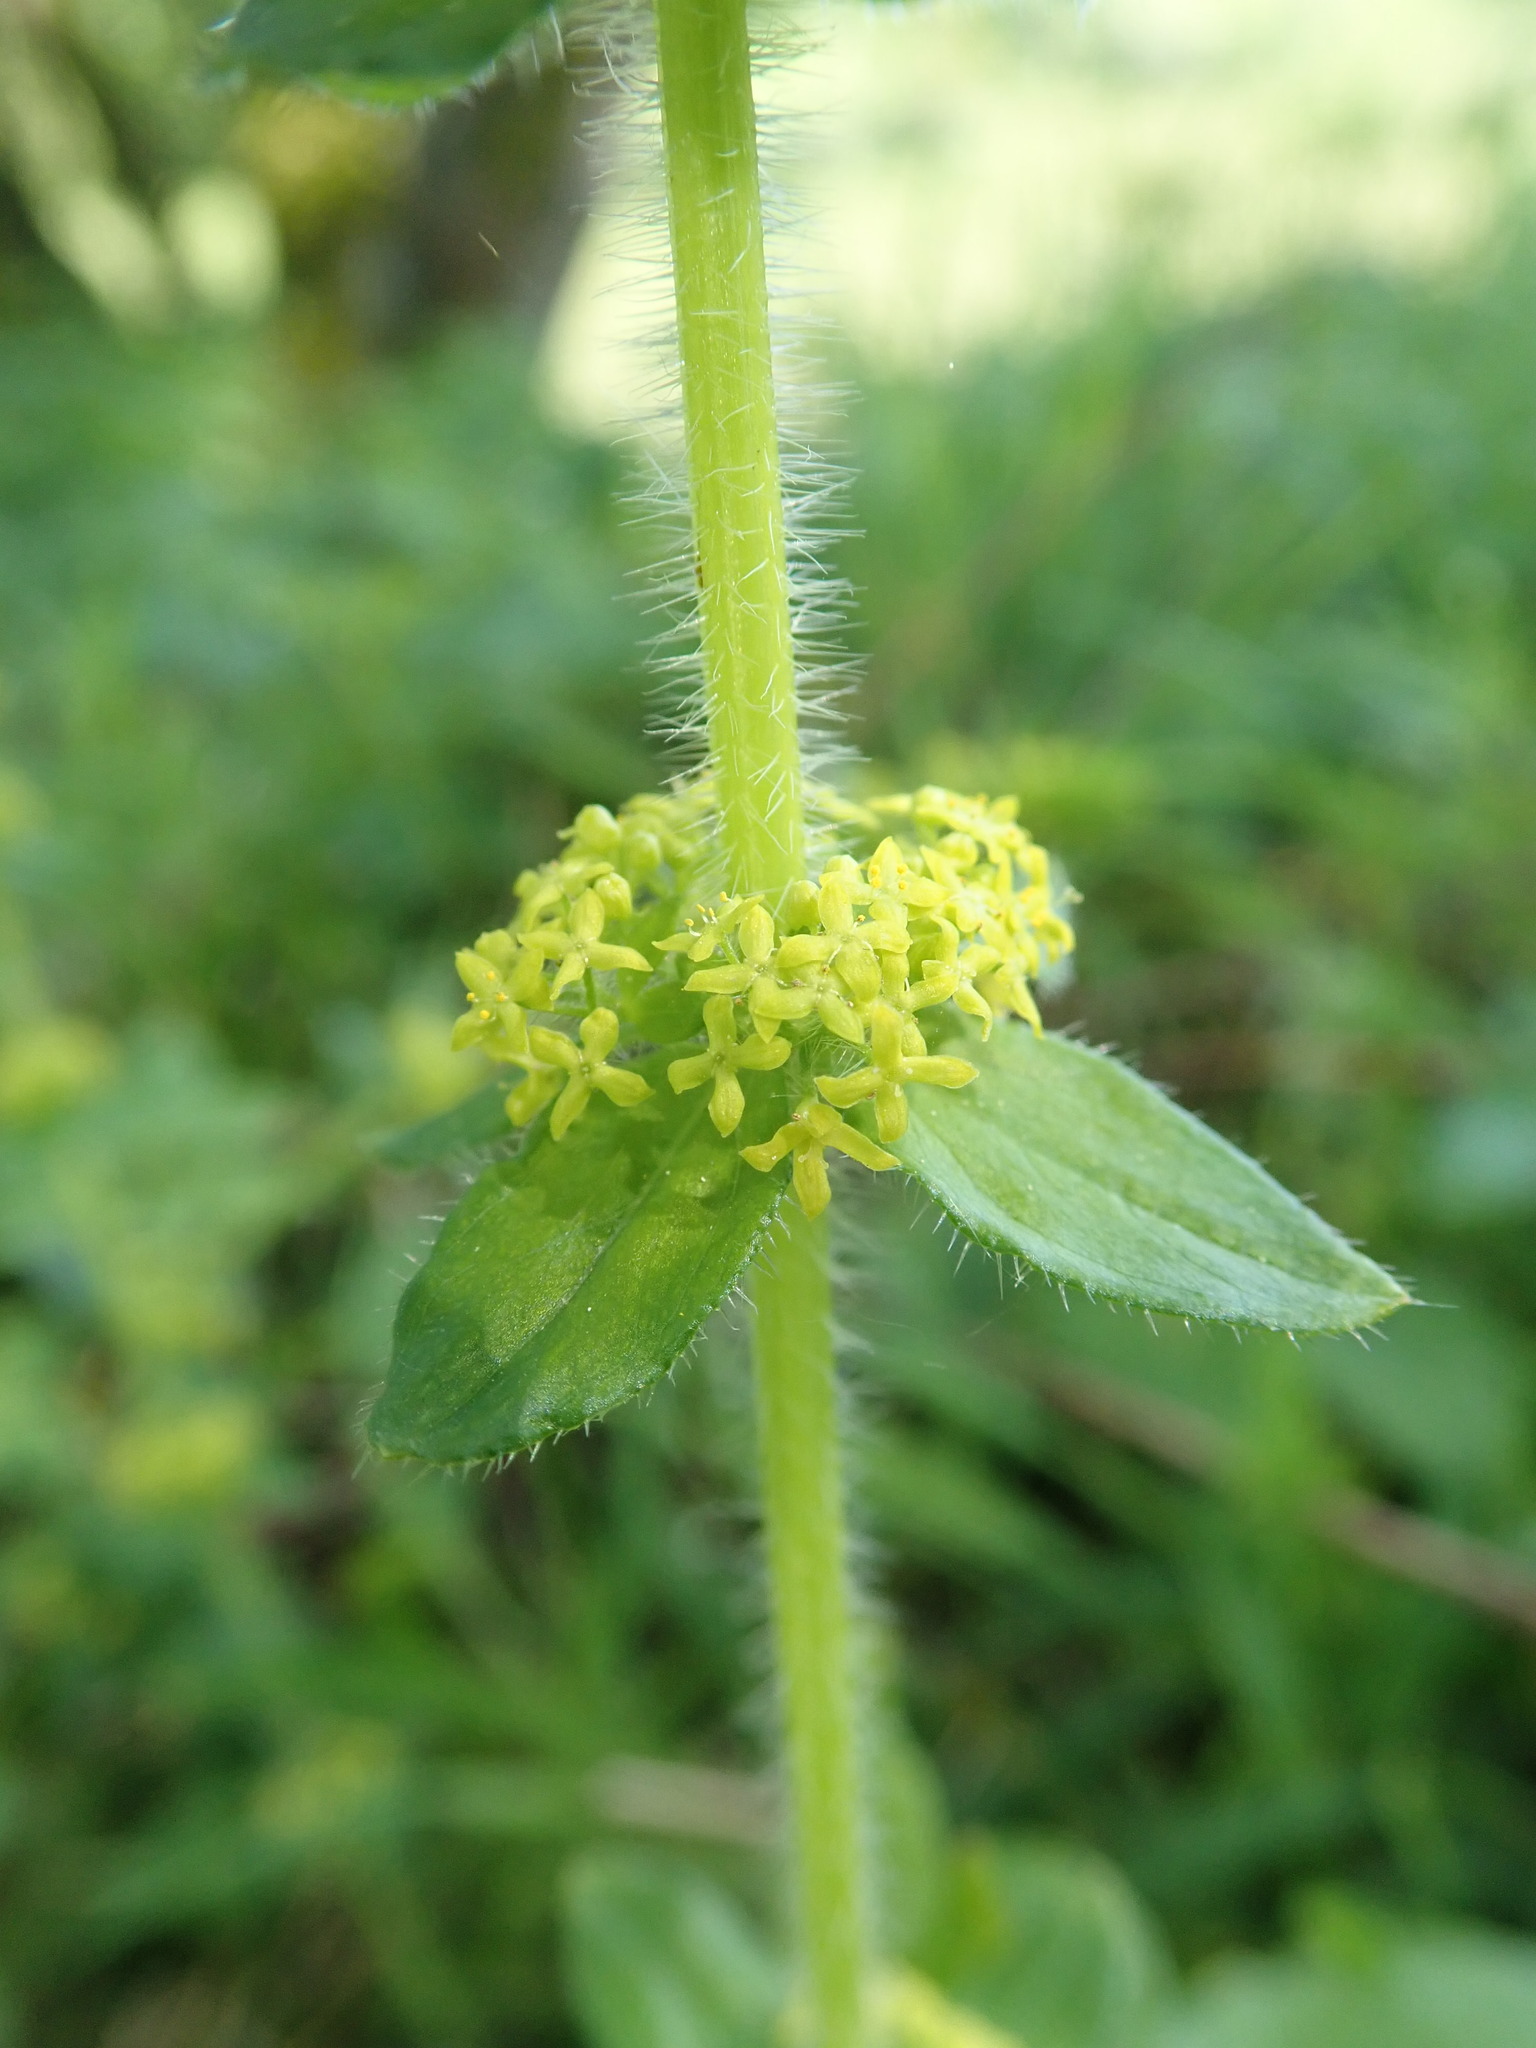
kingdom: Plantae
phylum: Tracheophyta
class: Magnoliopsida
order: Gentianales
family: Rubiaceae
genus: Cruciata
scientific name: Cruciata laevipes
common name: Crosswort
